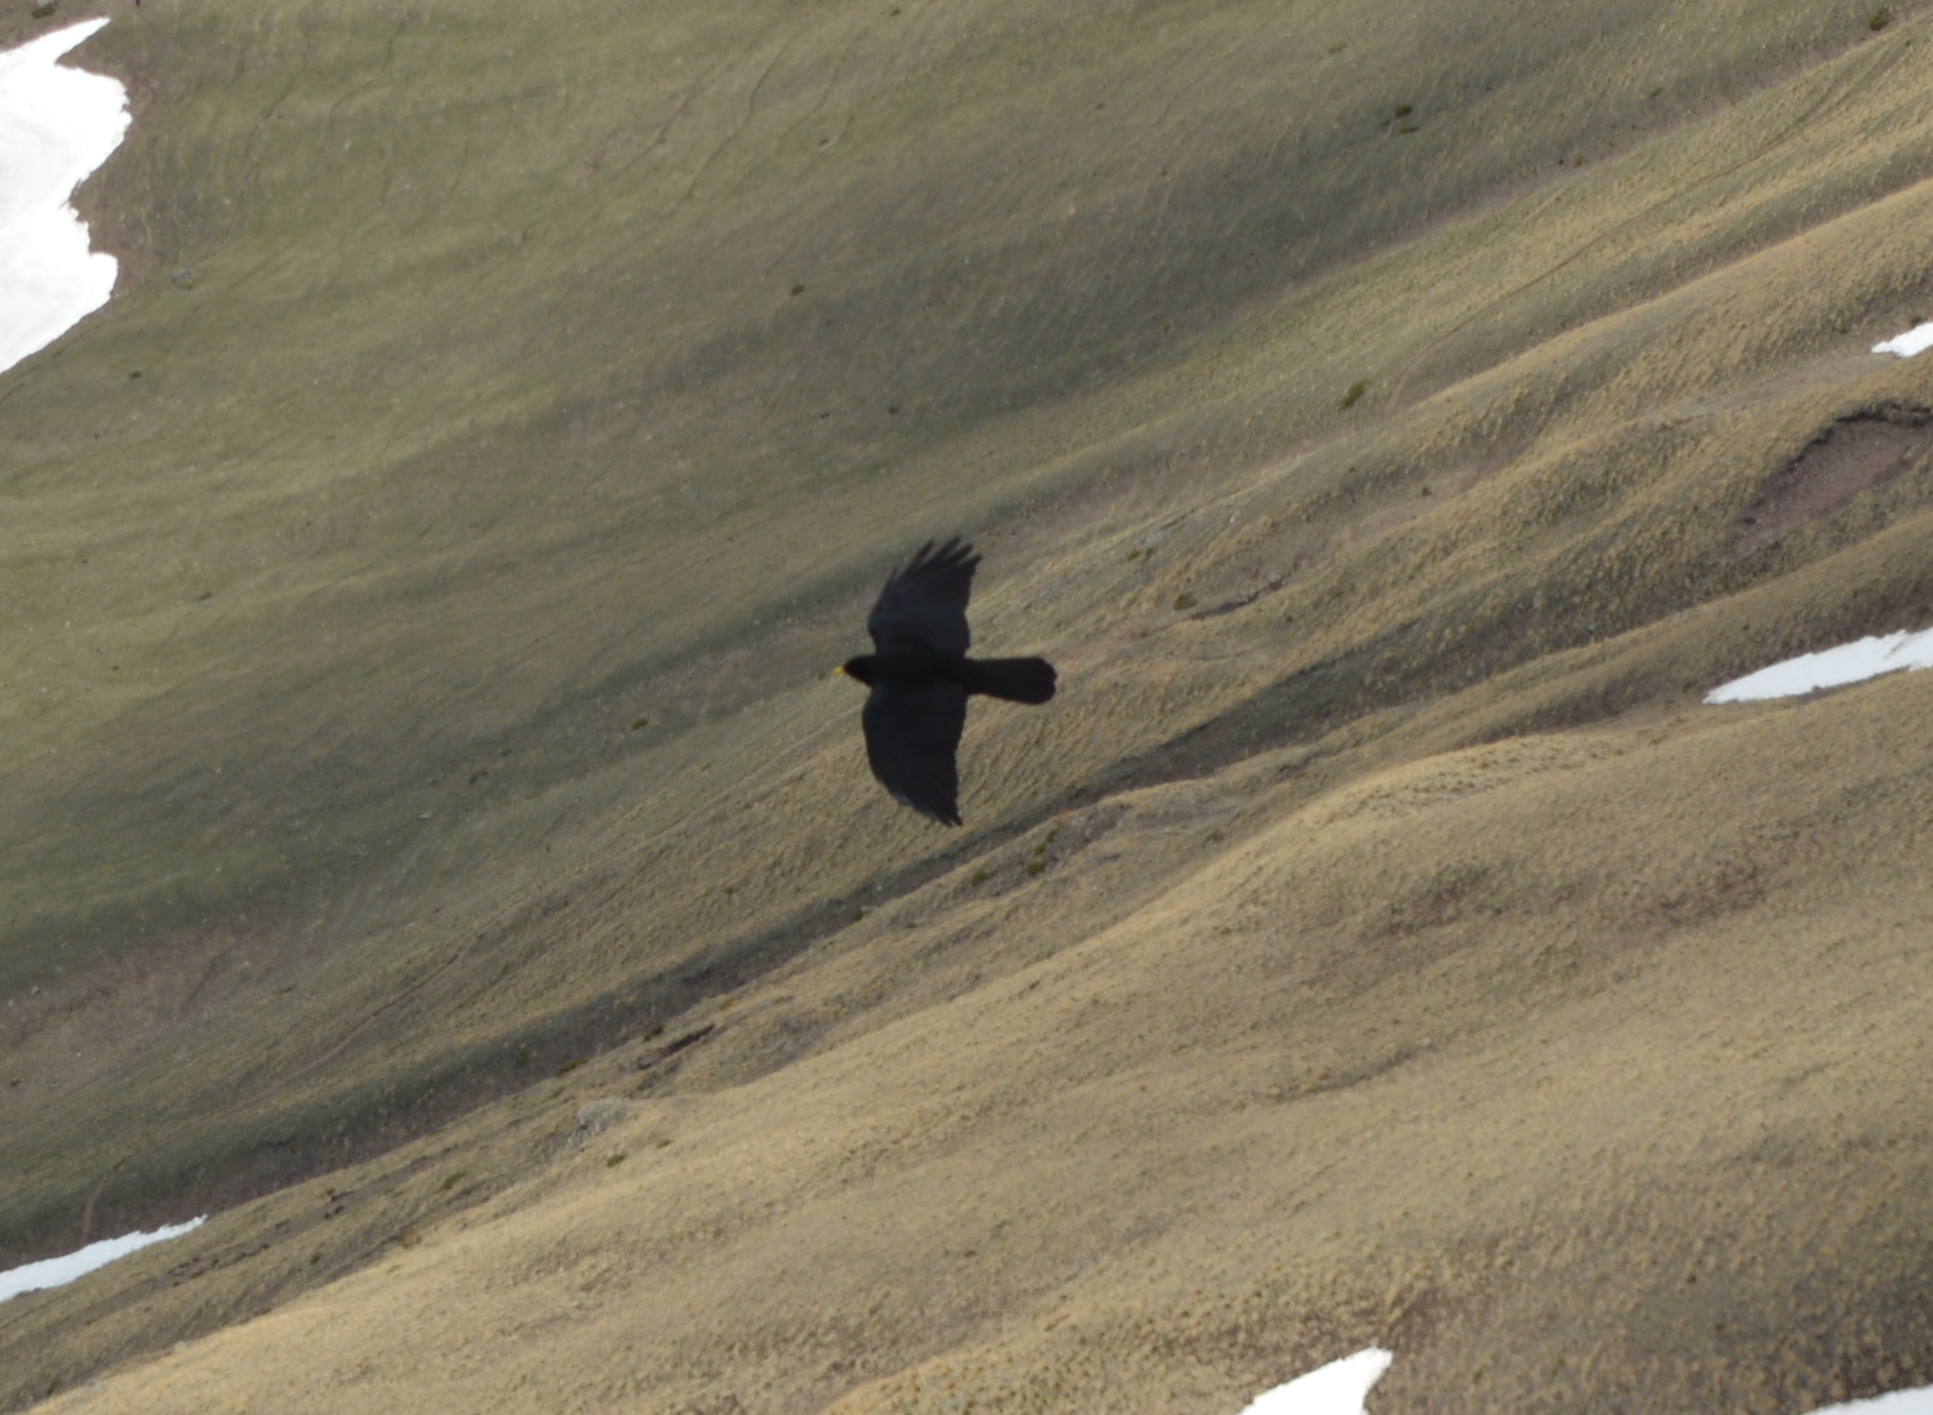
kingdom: Animalia
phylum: Chordata
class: Aves
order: Passeriformes
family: Corvidae
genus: Pyrrhocorax
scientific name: Pyrrhocorax graculus
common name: Alpine chough
